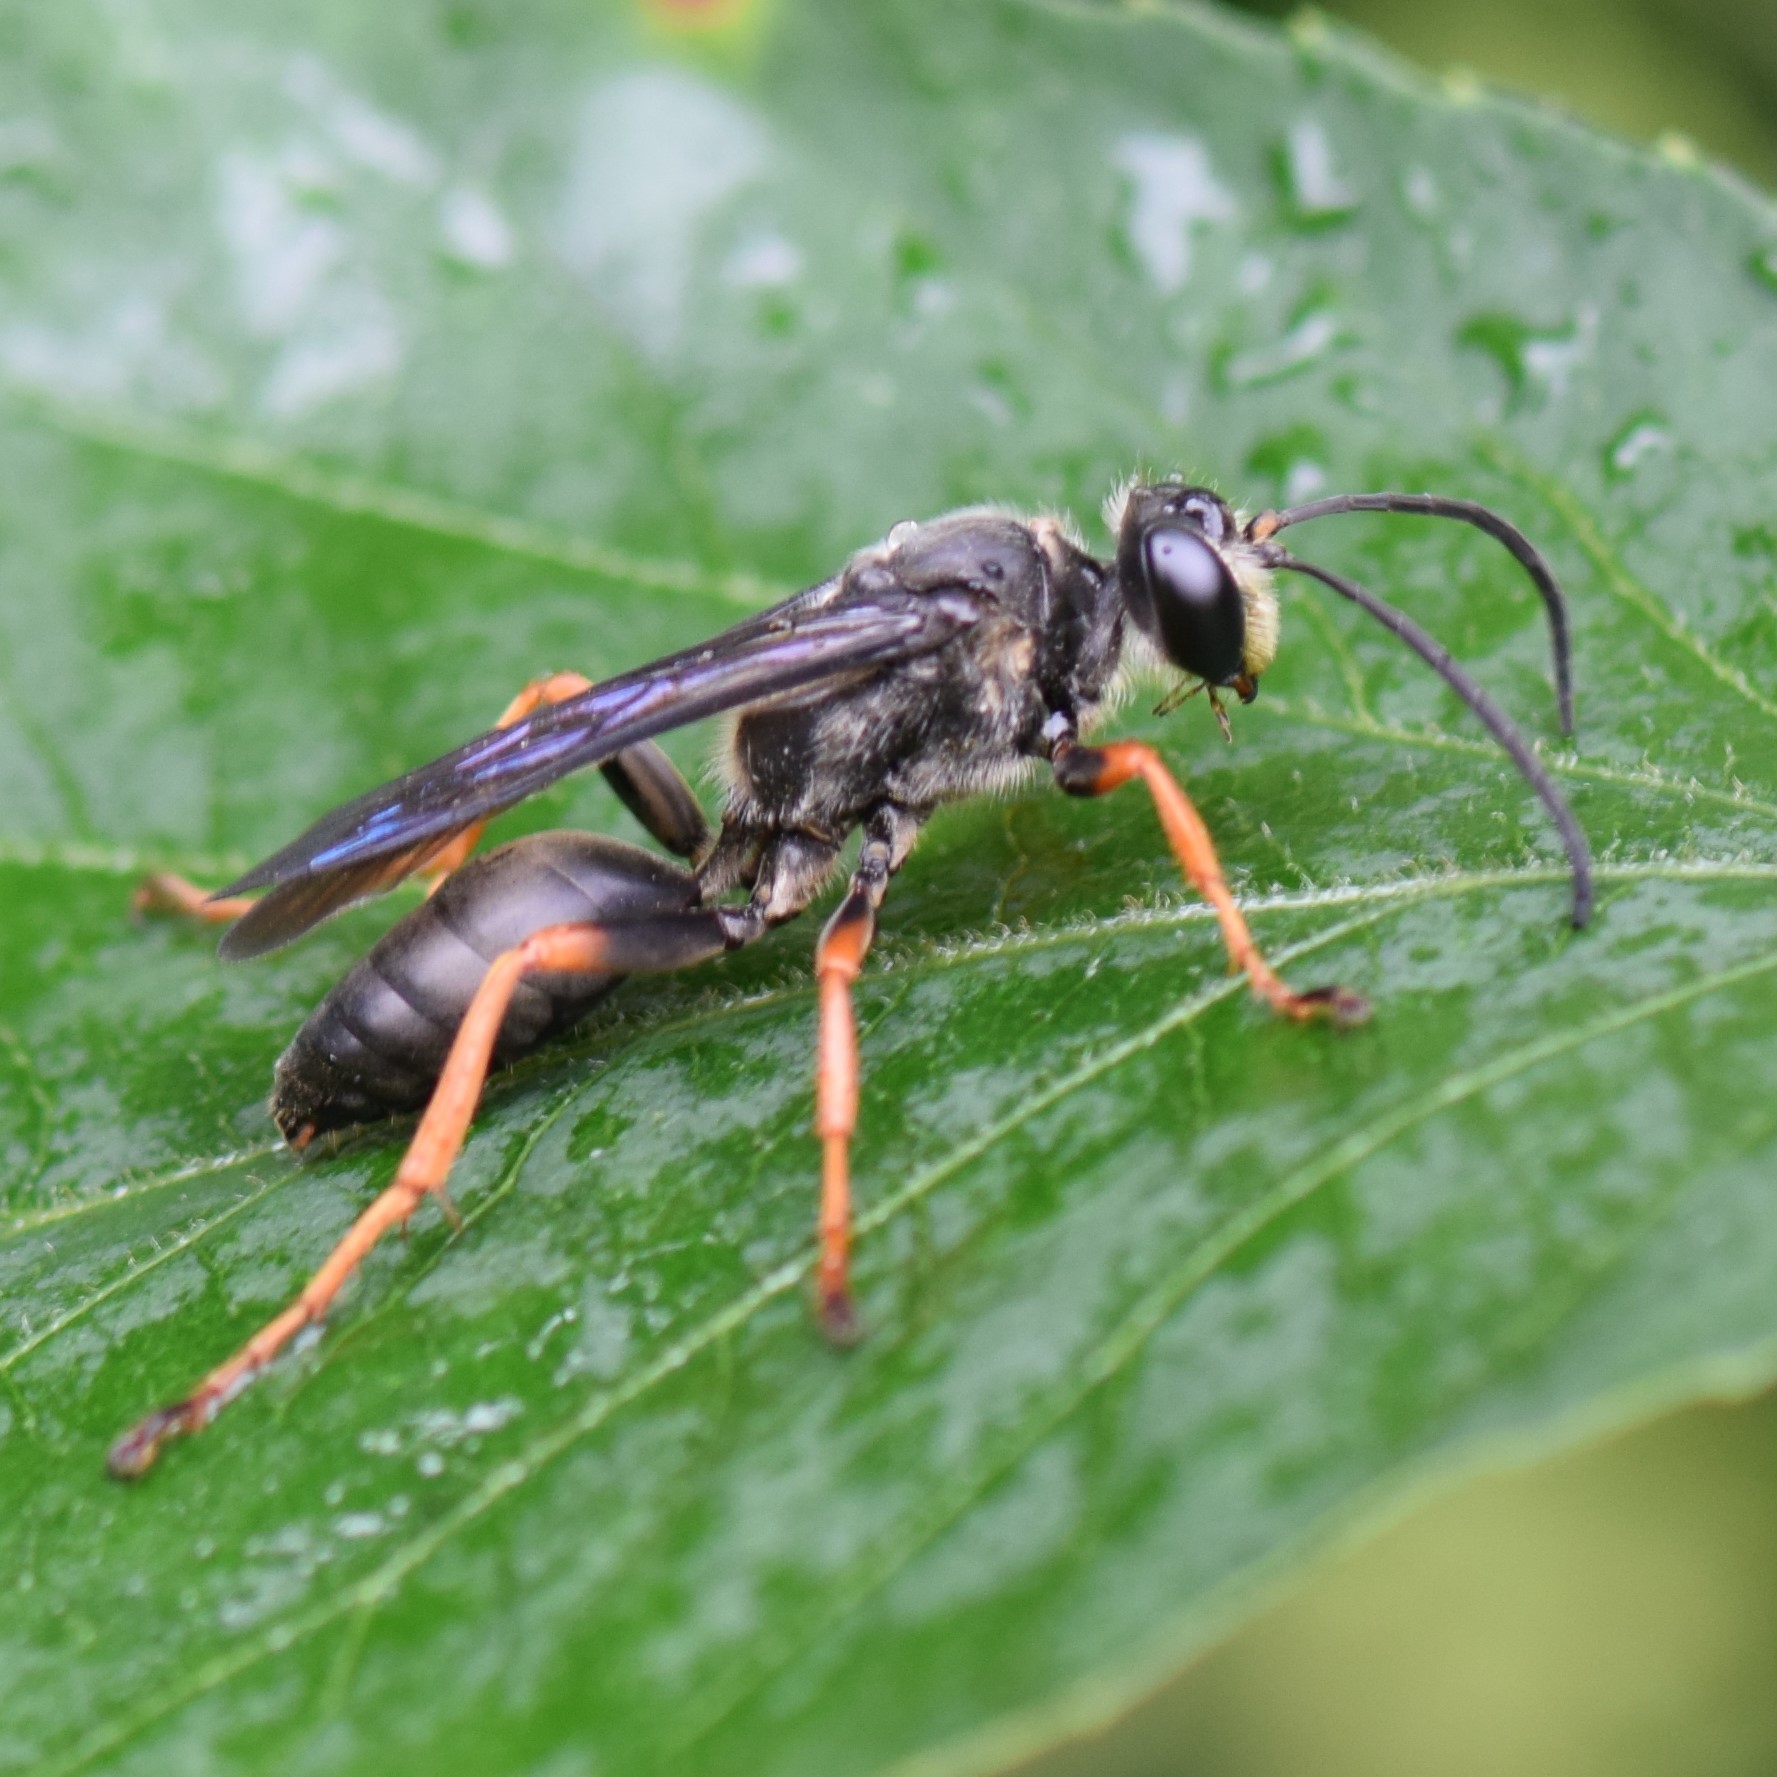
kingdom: Animalia
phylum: Arthropoda
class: Insecta
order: Hymenoptera
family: Sphecidae
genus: Sphex
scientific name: Sphex nudus
